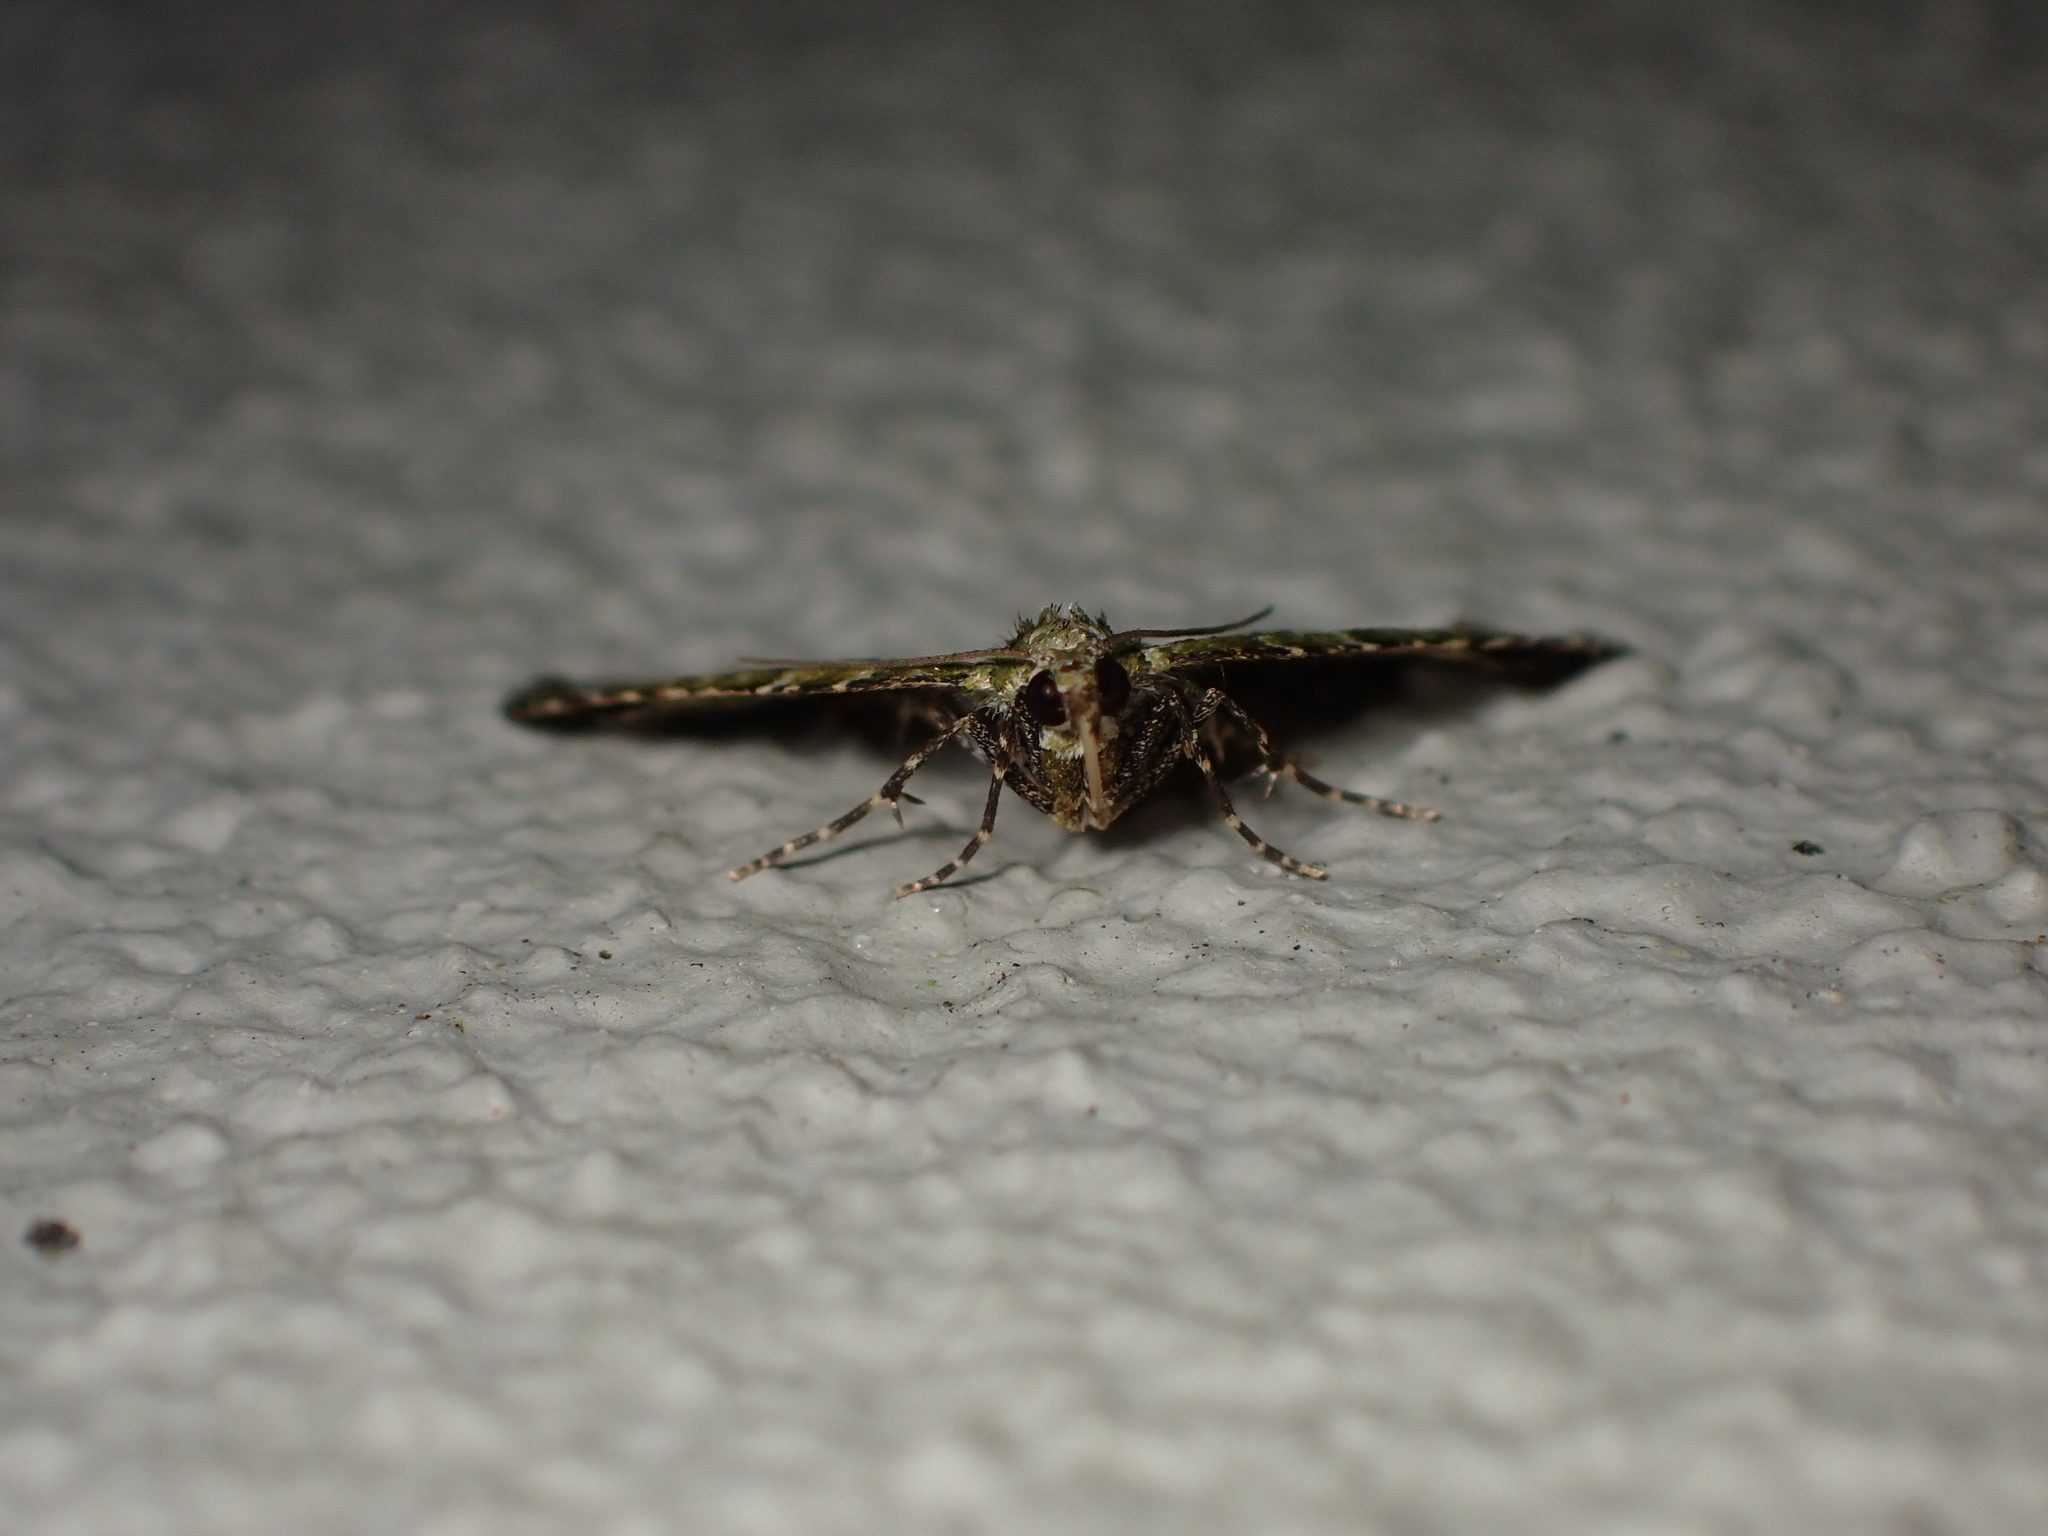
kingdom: Animalia
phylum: Arthropoda
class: Insecta
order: Lepidoptera
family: Geometridae
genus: Asaphodes
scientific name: Asaphodes beata
